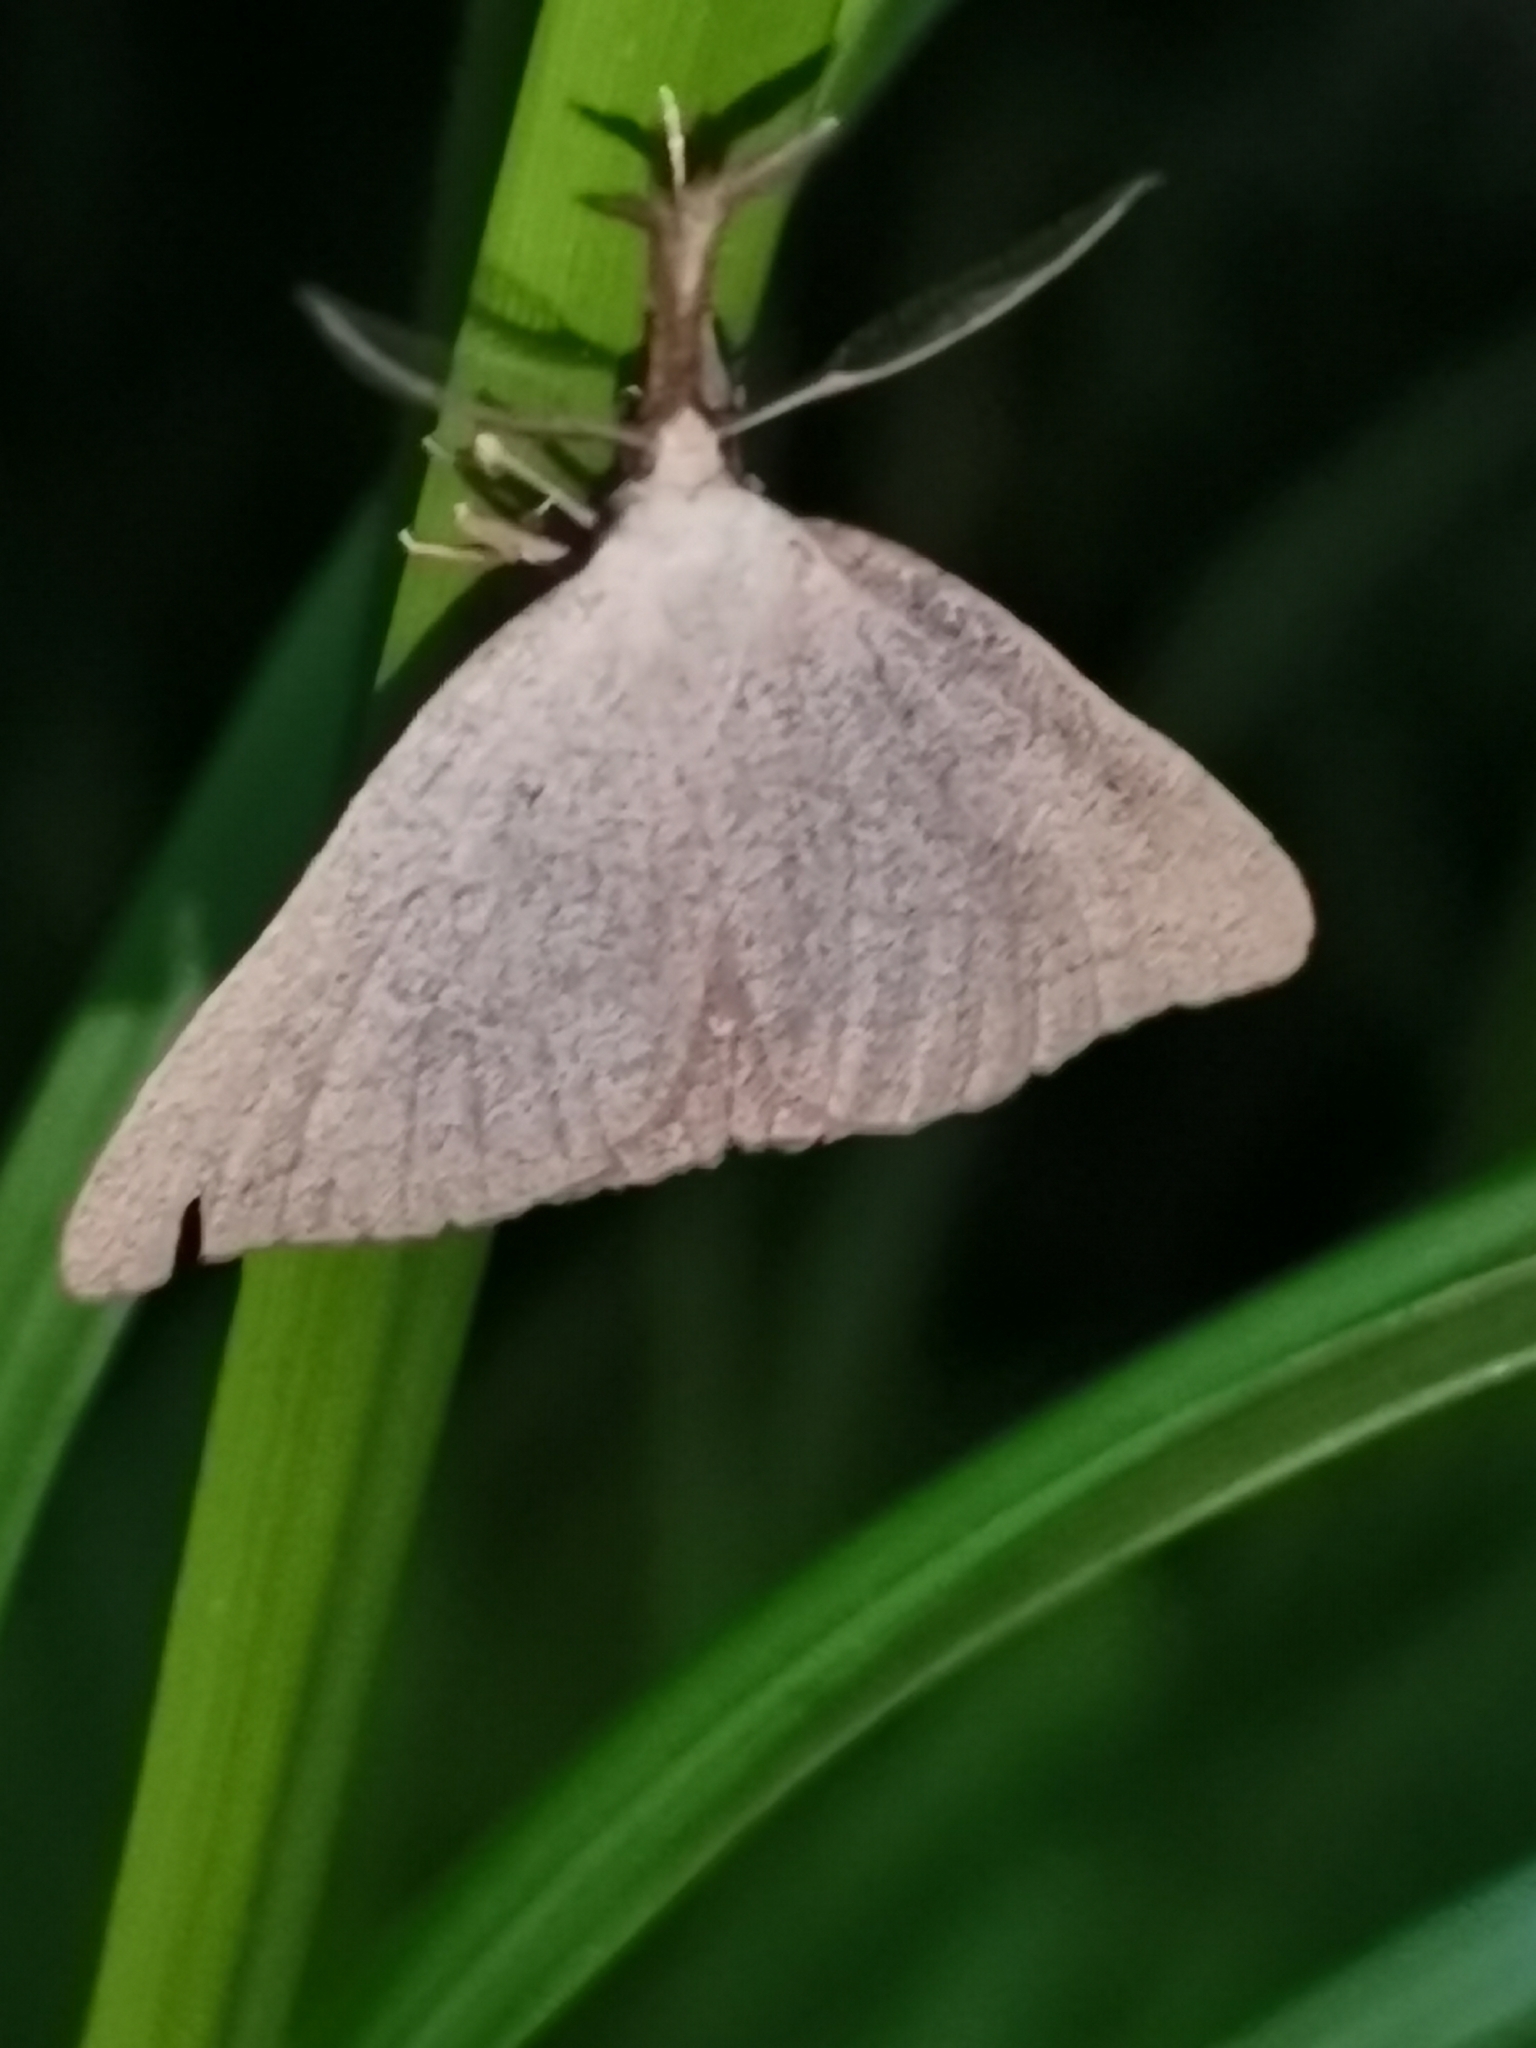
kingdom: Animalia
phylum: Arthropoda
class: Insecta
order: Lepidoptera
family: Erebidae
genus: Polypogon
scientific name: Polypogon tentacularia
